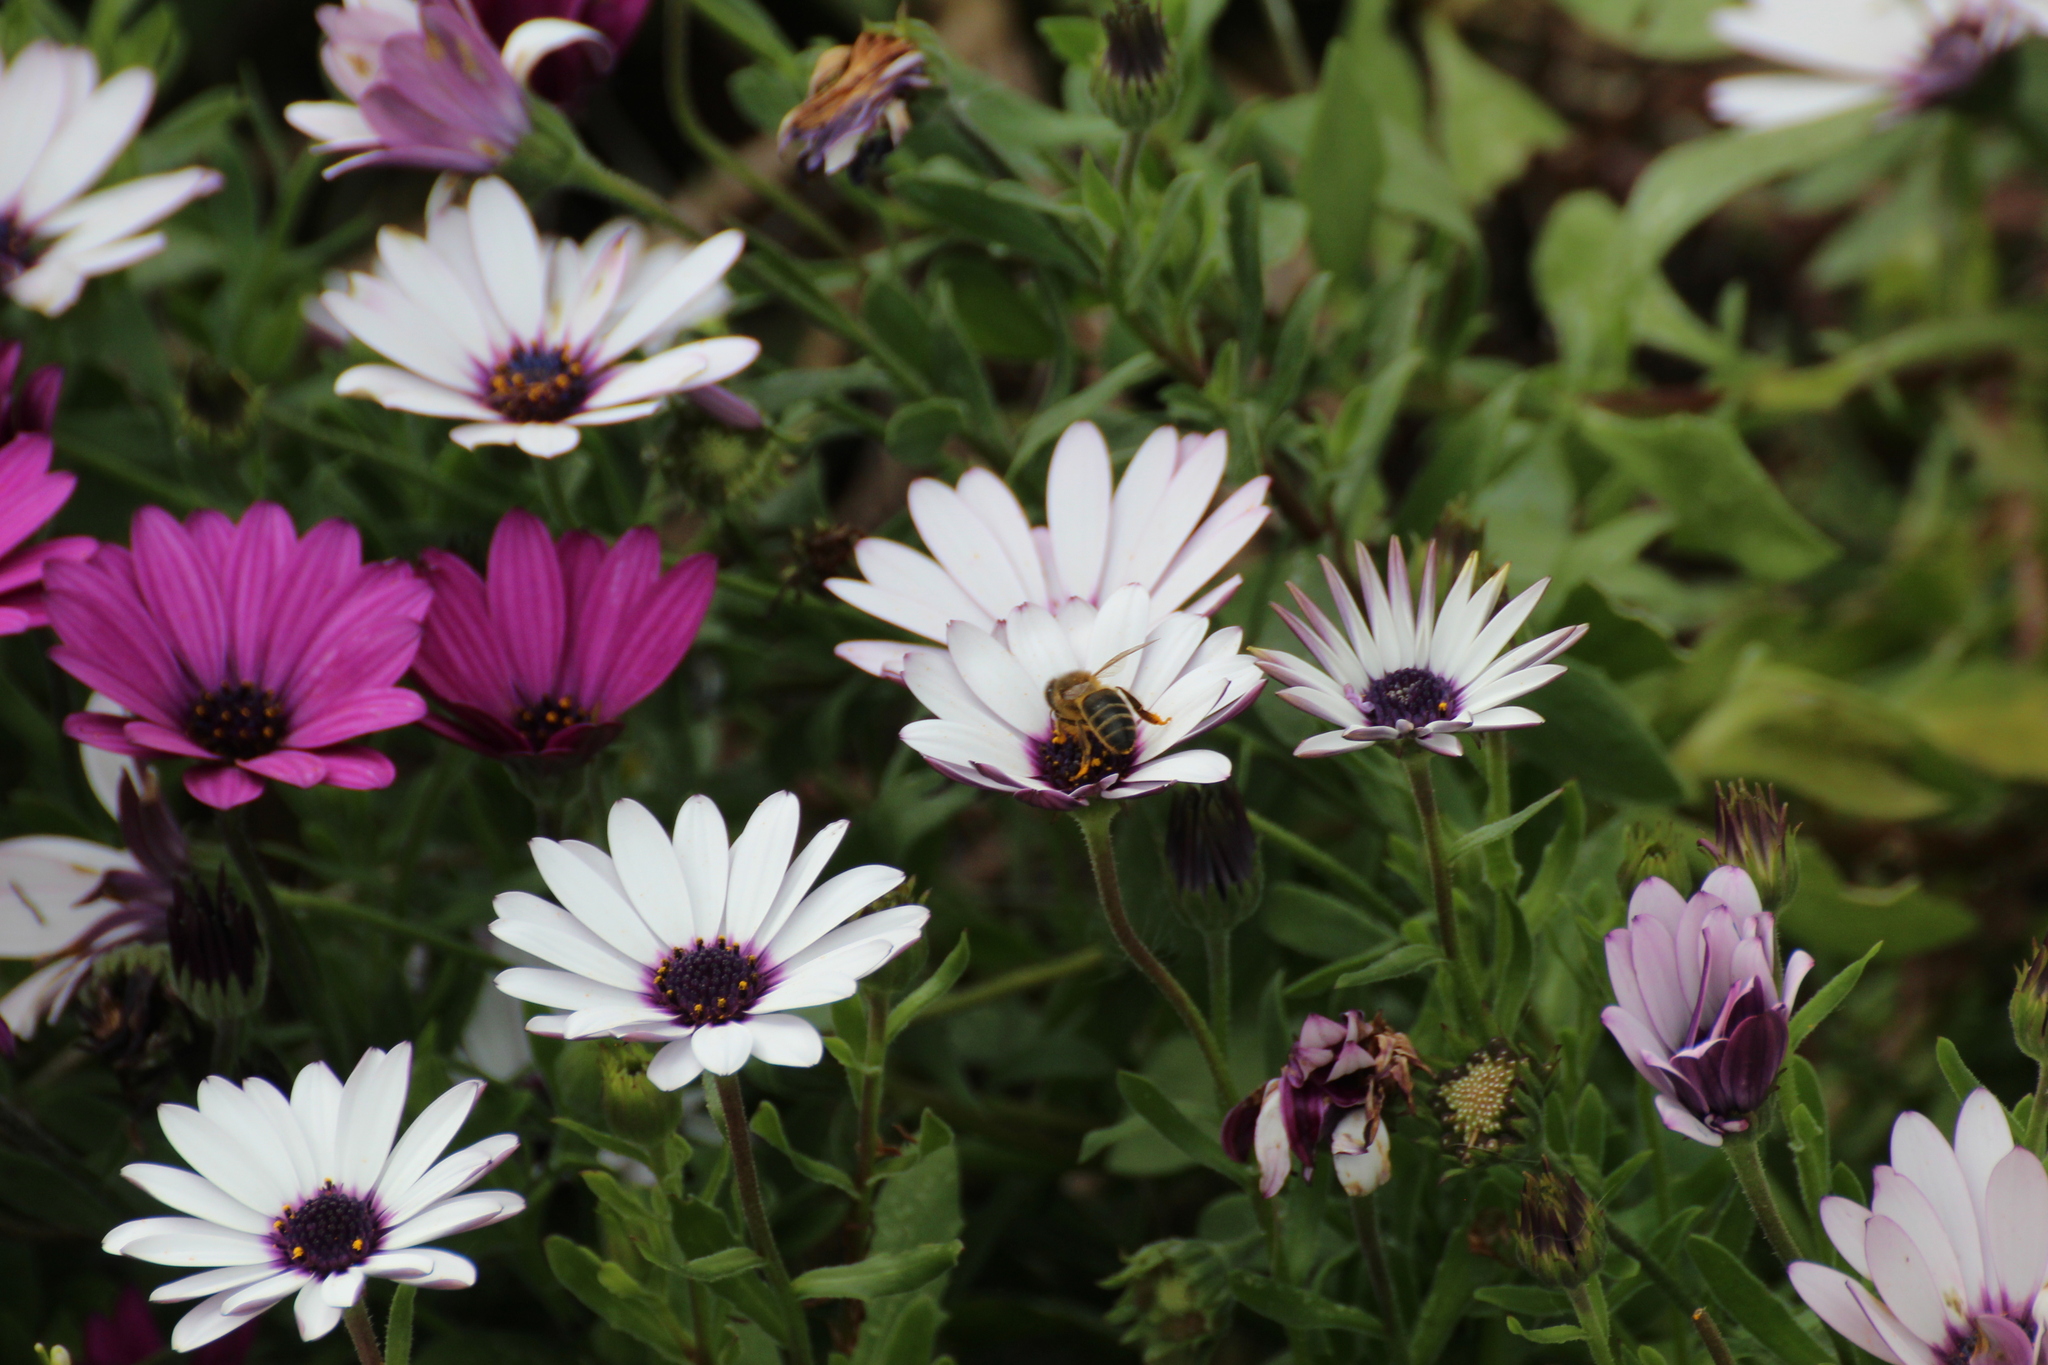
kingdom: Animalia
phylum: Arthropoda
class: Insecta
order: Hymenoptera
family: Apidae
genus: Apis
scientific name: Apis mellifera
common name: Honey bee
